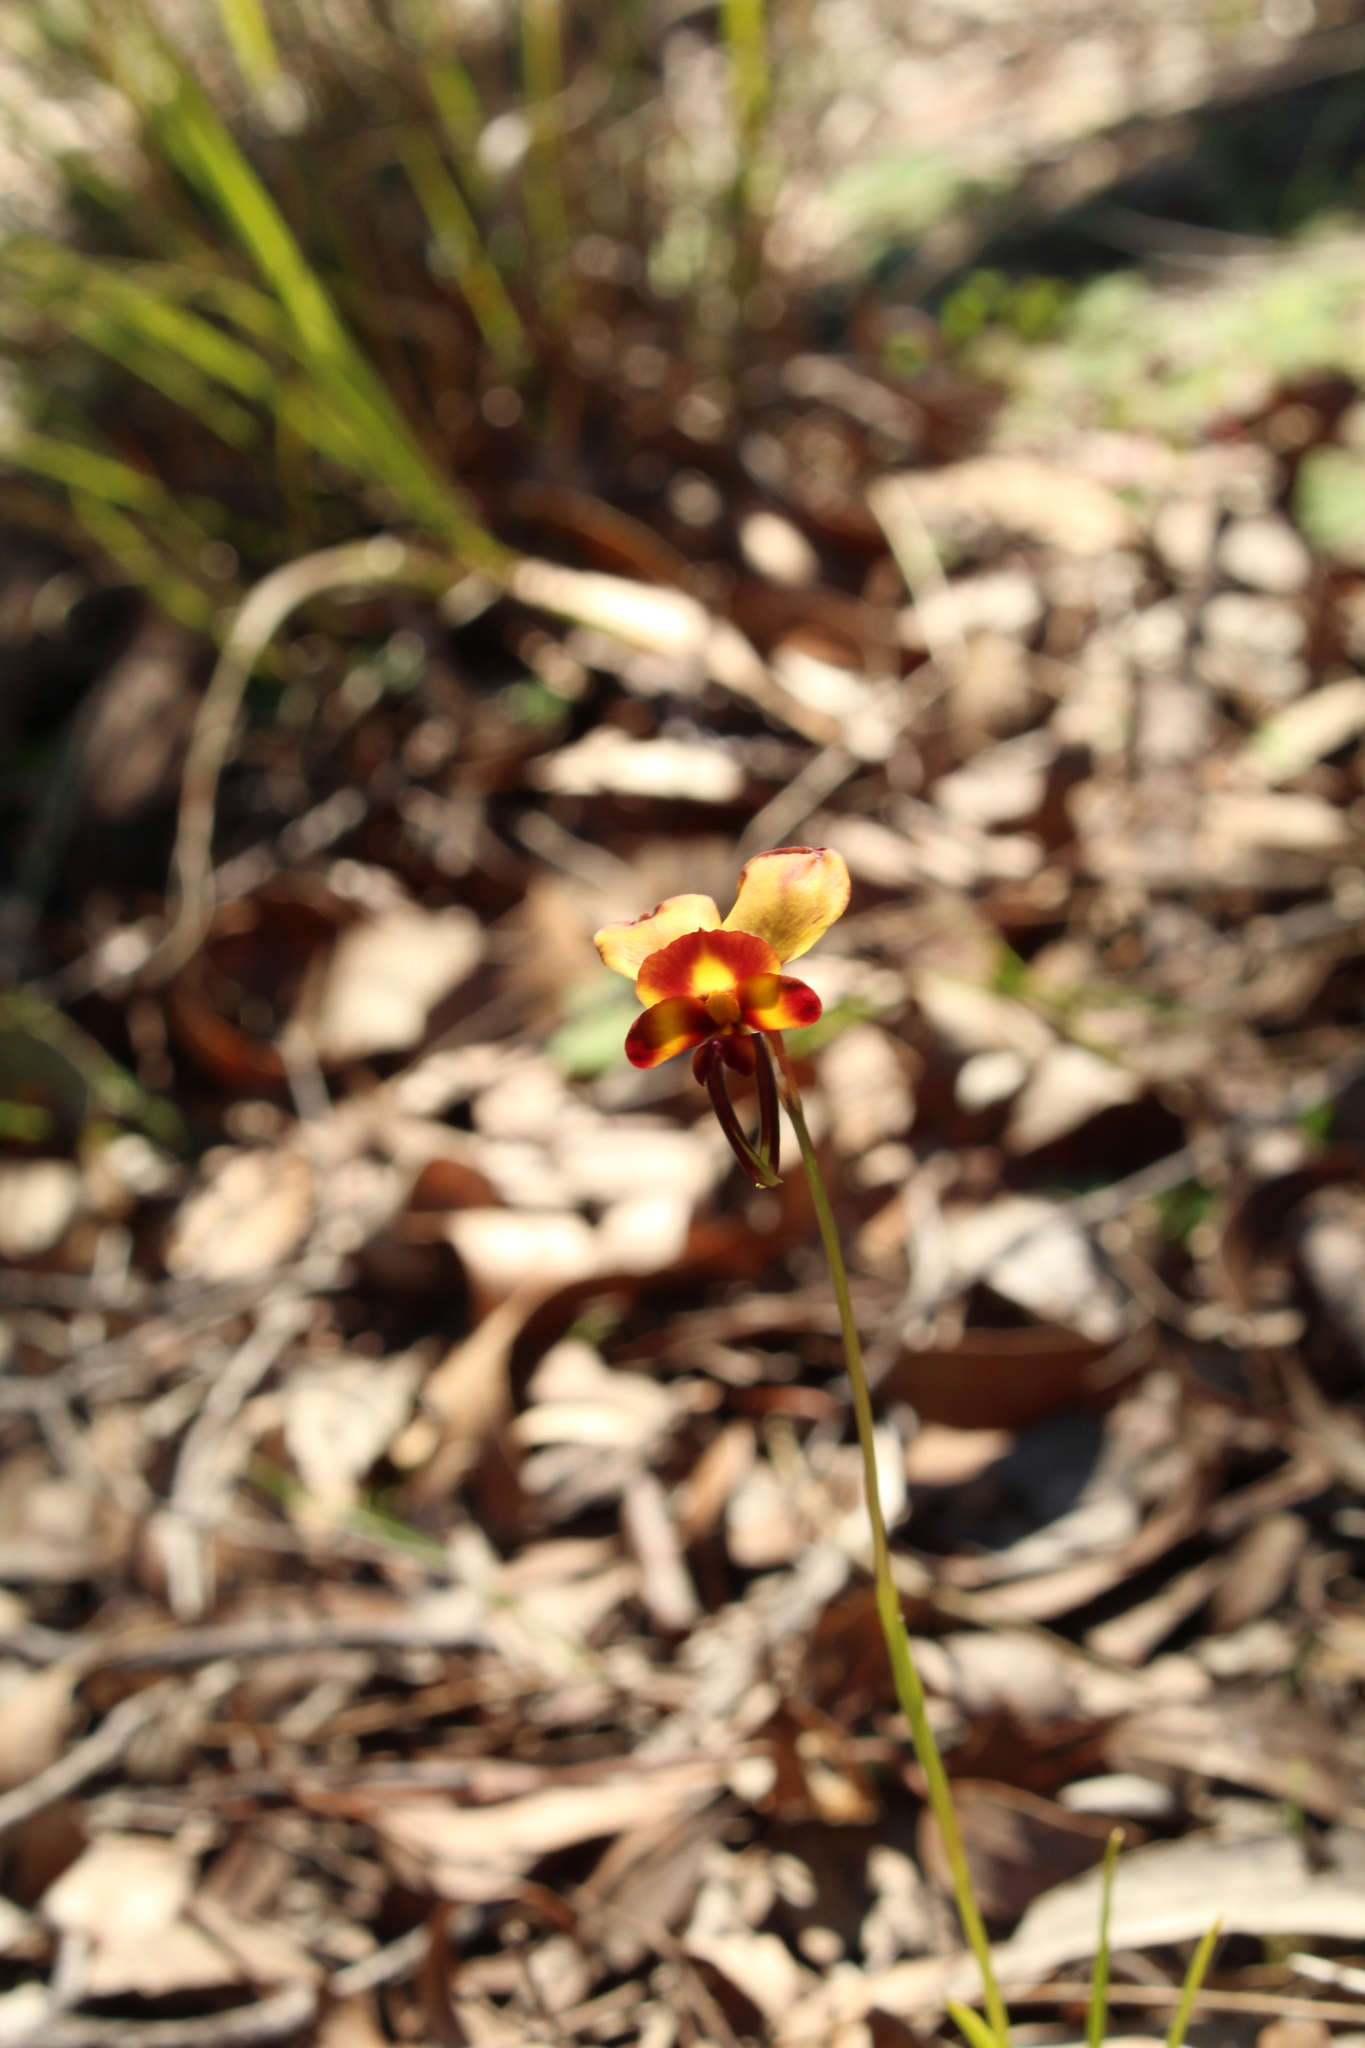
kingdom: Plantae
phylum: Tracheophyta
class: Liliopsida
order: Asparagales
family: Orchidaceae
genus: Diuris
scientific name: Diuris littoralis
